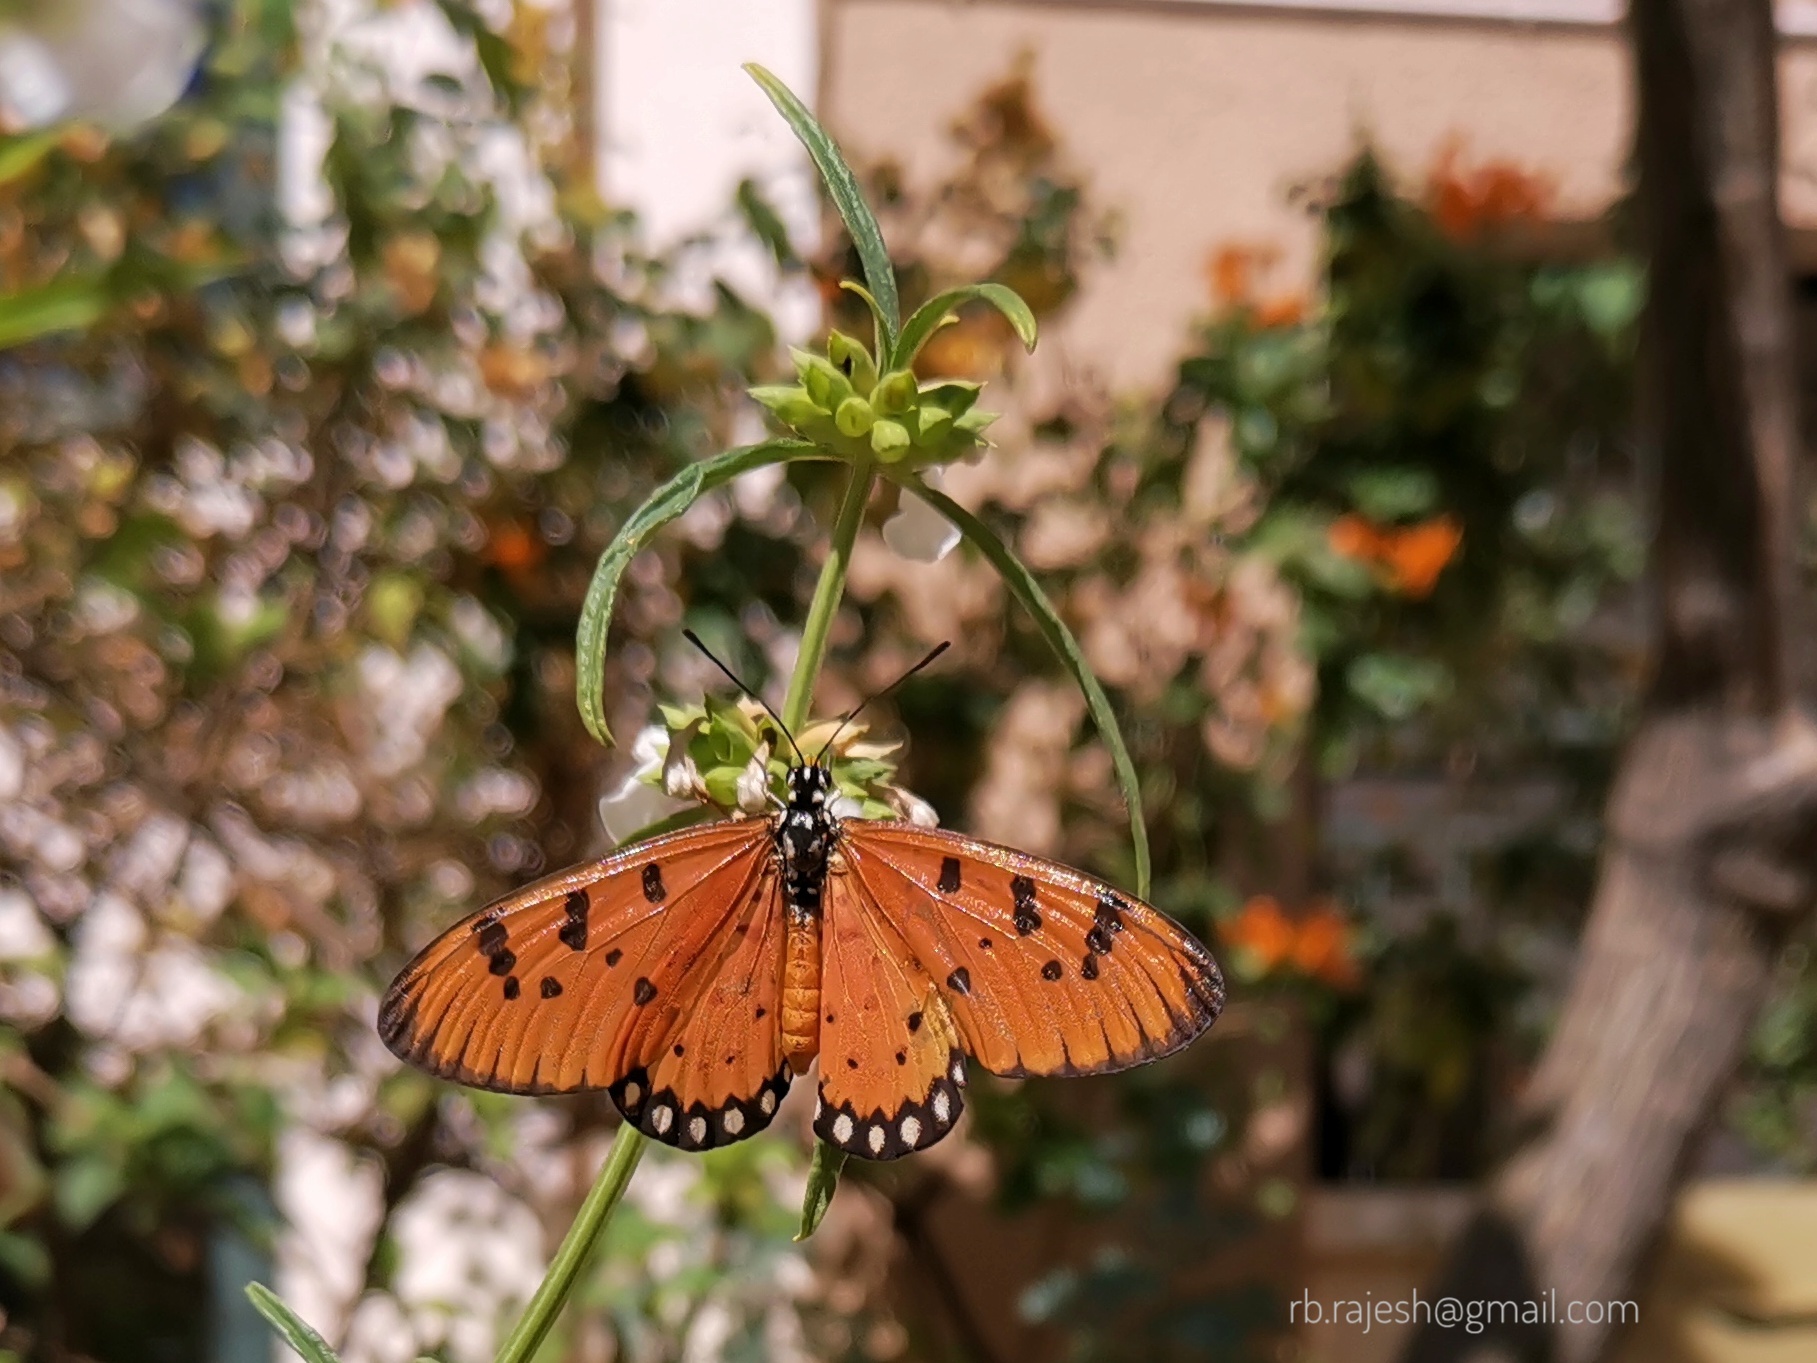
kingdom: Animalia
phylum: Arthropoda
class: Insecta
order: Lepidoptera
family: Nymphalidae
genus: Acraea
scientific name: Acraea terpsicore
